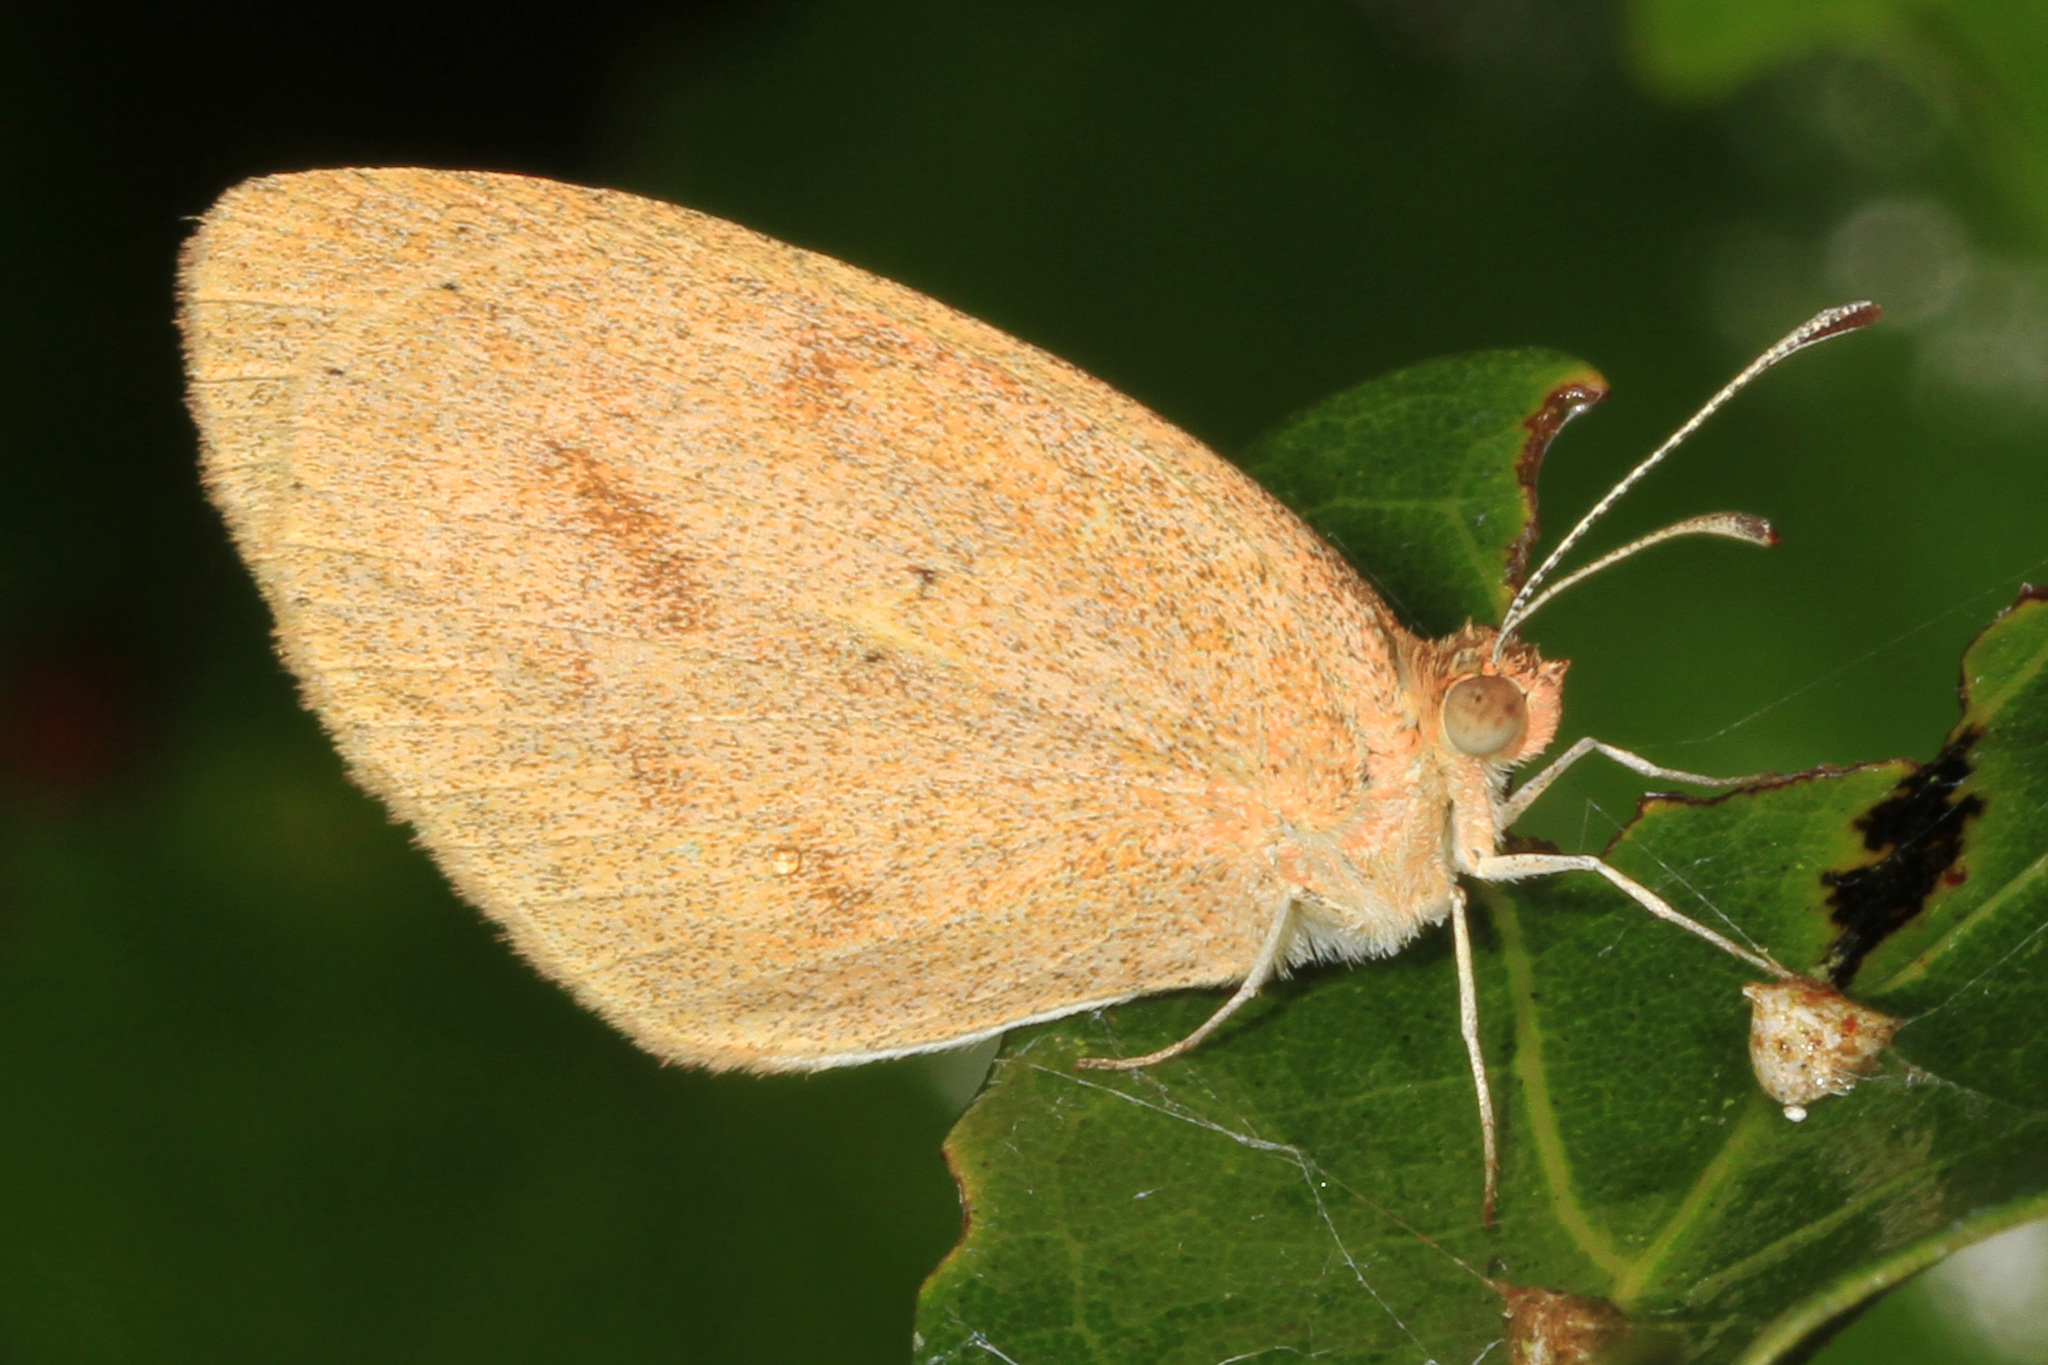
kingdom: Animalia
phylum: Arthropoda
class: Insecta
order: Lepidoptera
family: Pieridae
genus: Eurema
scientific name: Eurema daira
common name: Barred sulphur
